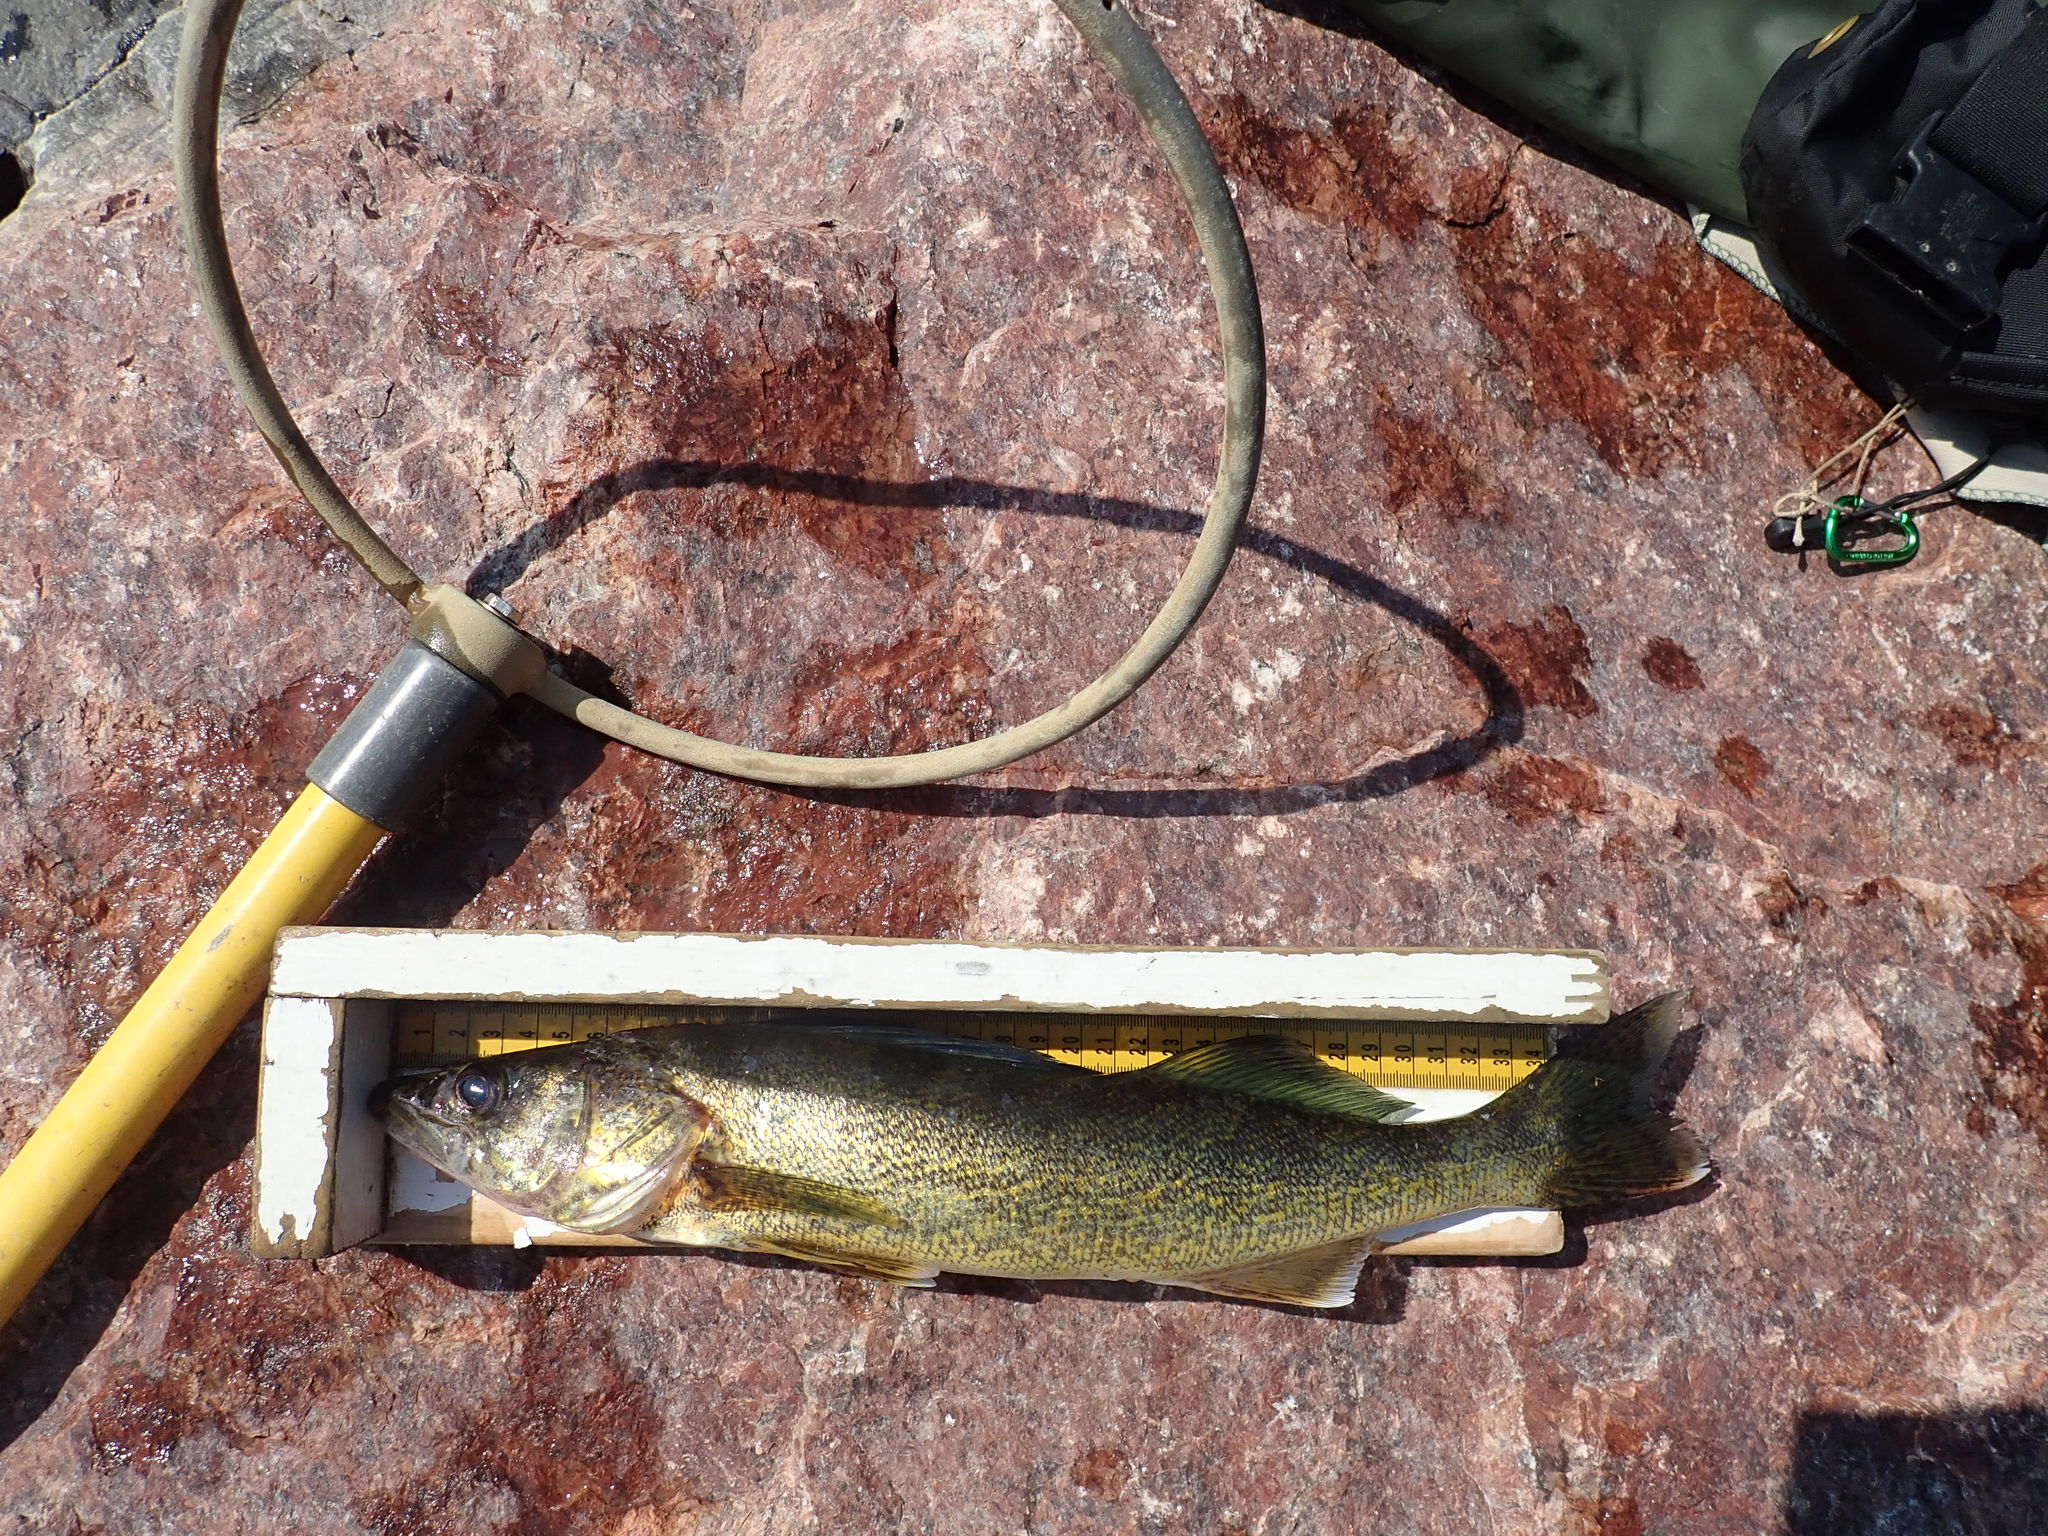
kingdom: Animalia
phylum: Chordata
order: Perciformes
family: Percidae
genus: Sander
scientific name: Sander vitreus
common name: Walleye
